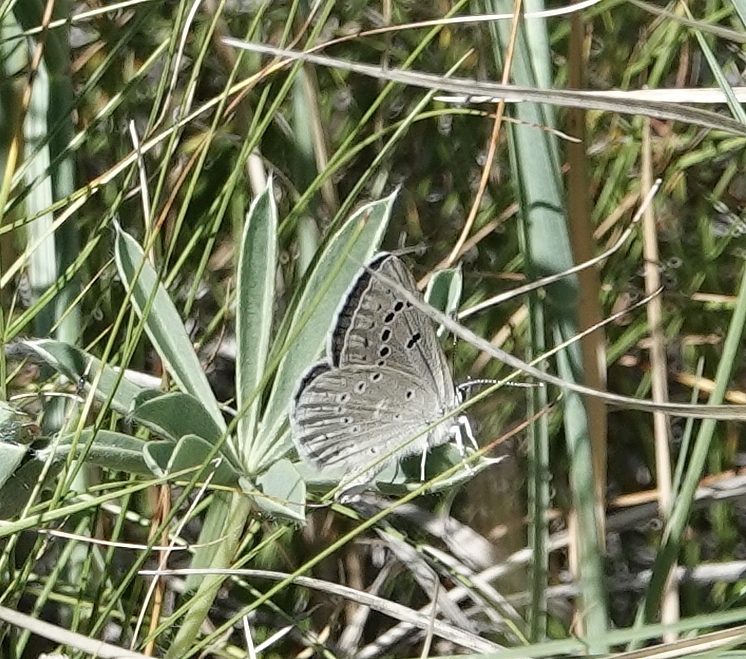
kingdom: Animalia
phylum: Arthropoda
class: Insecta
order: Lepidoptera
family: Lycaenidae
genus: Icaricia
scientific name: Icaricia icarioides
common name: Boisduval's blue
